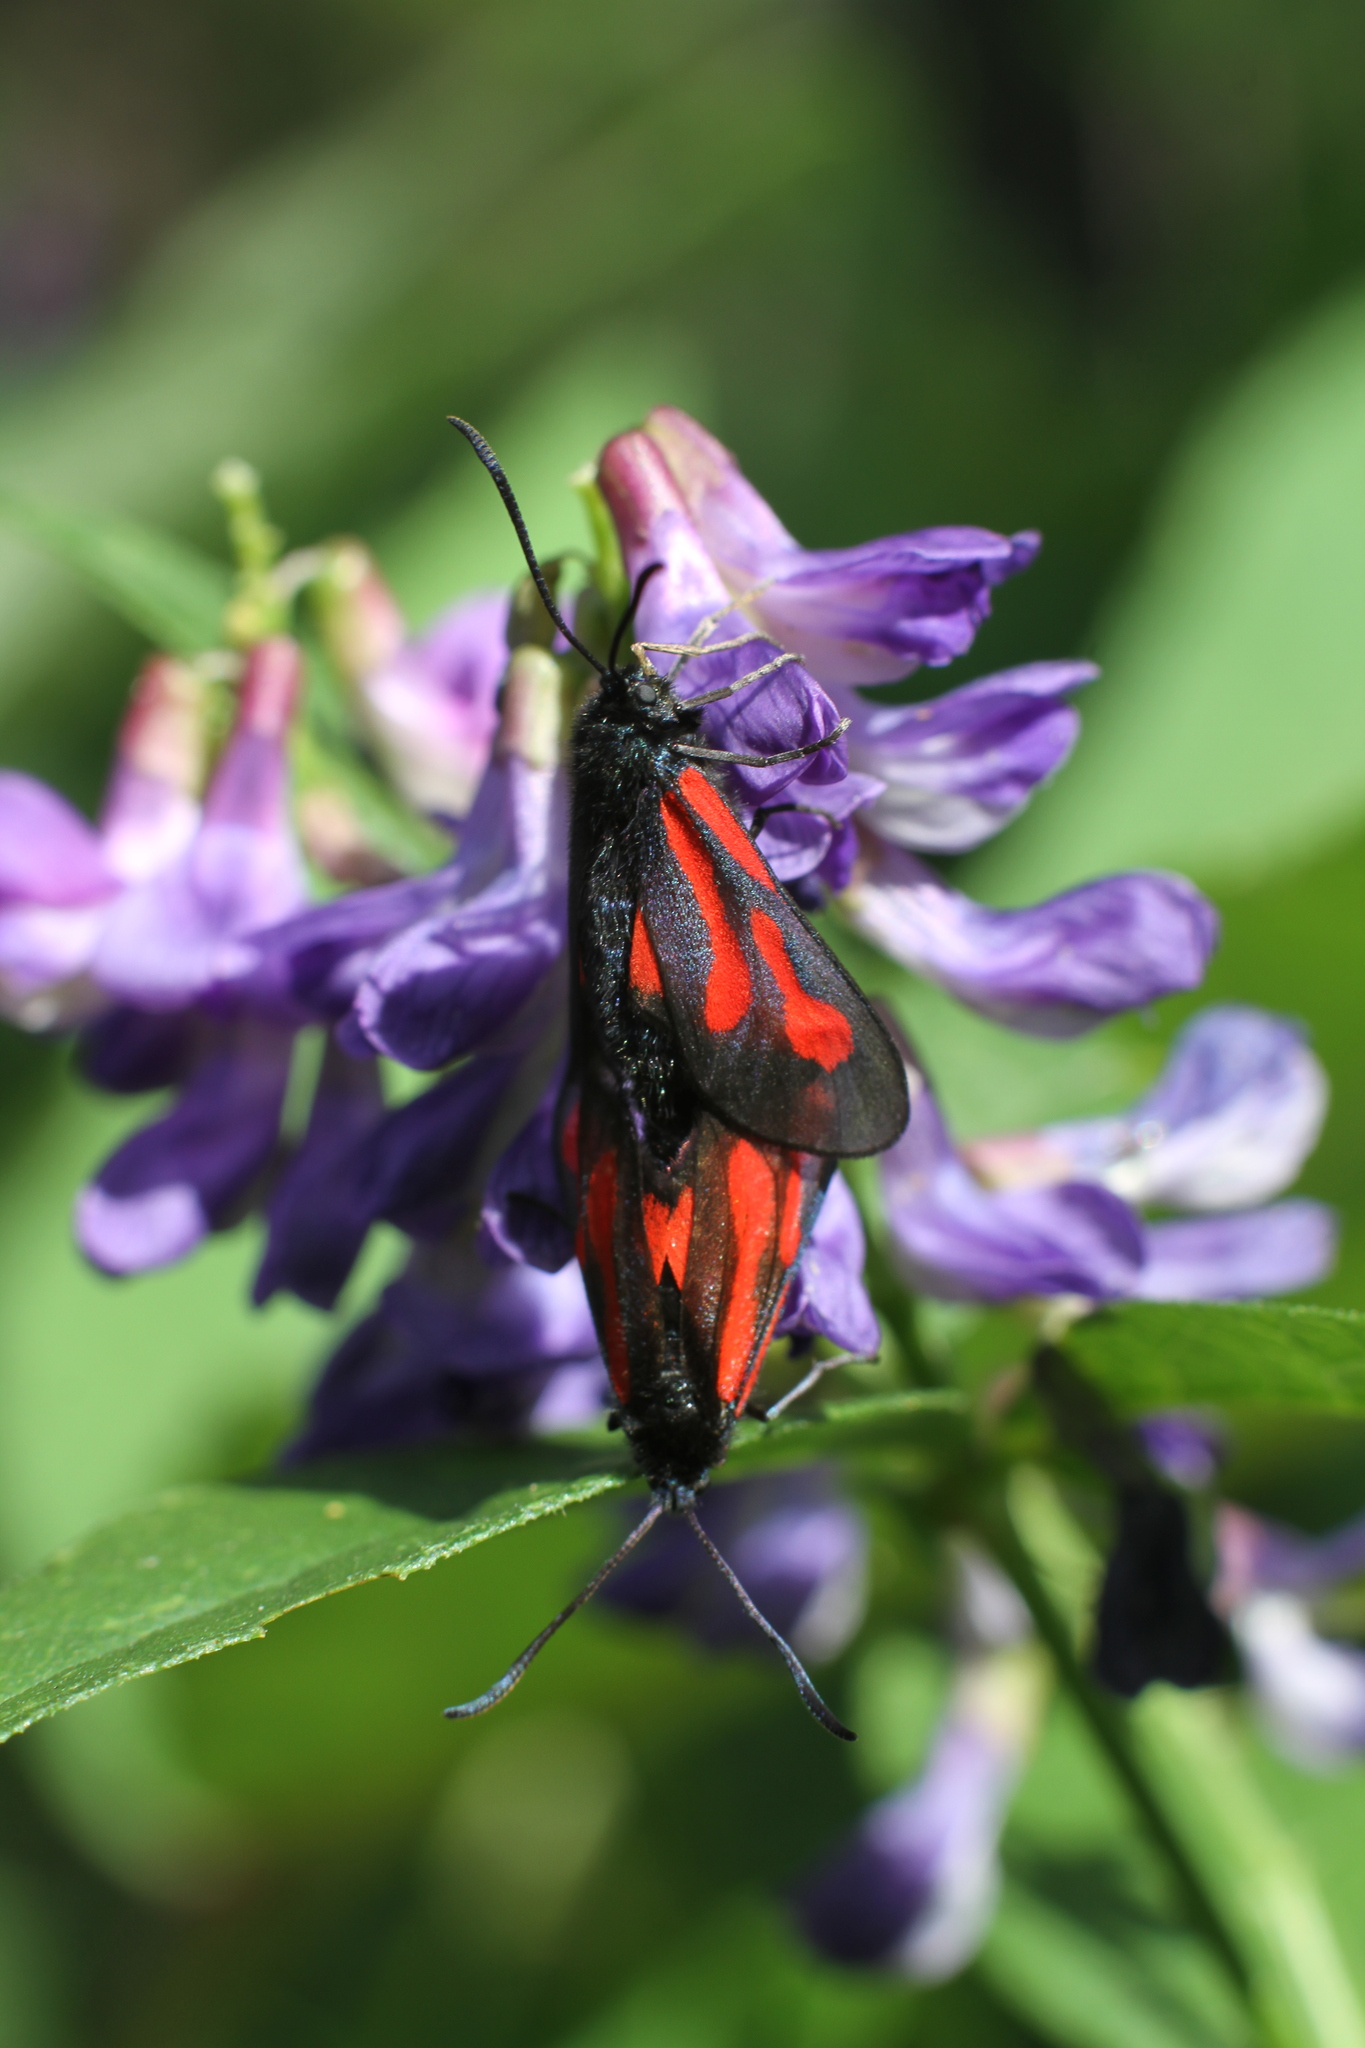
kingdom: Animalia
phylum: Arthropoda
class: Insecta
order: Lepidoptera
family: Zygaenidae
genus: Zygaena
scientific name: Zygaena osterodensis
